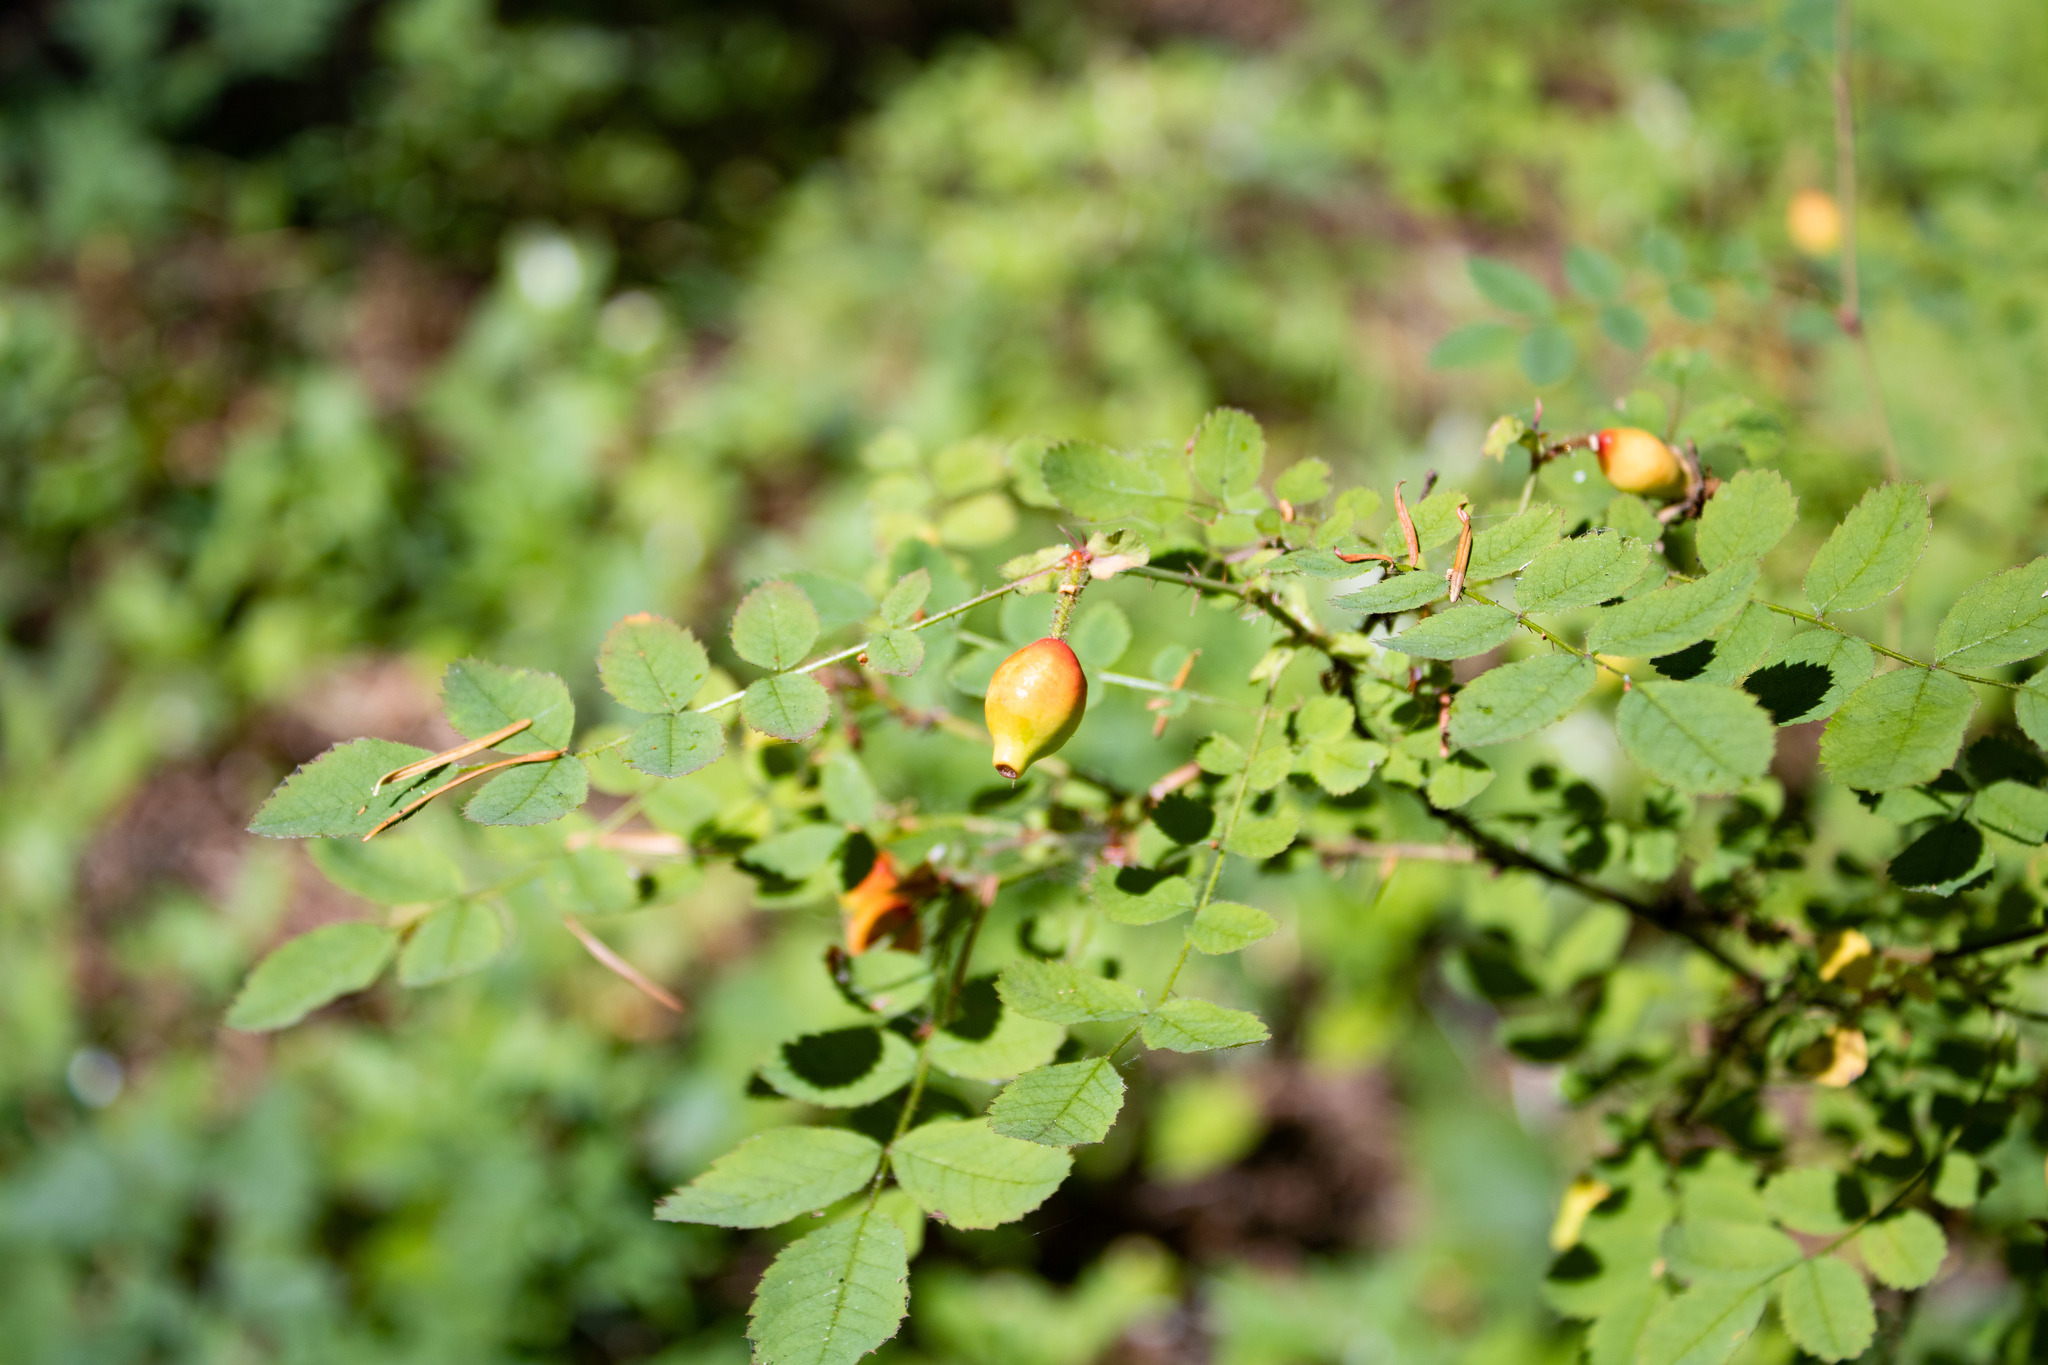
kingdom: Plantae
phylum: Tracheophyta
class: Magnoliopsida
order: Rosales
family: Rosaceae
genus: Rosa
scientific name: Rosa gymnocarpa
